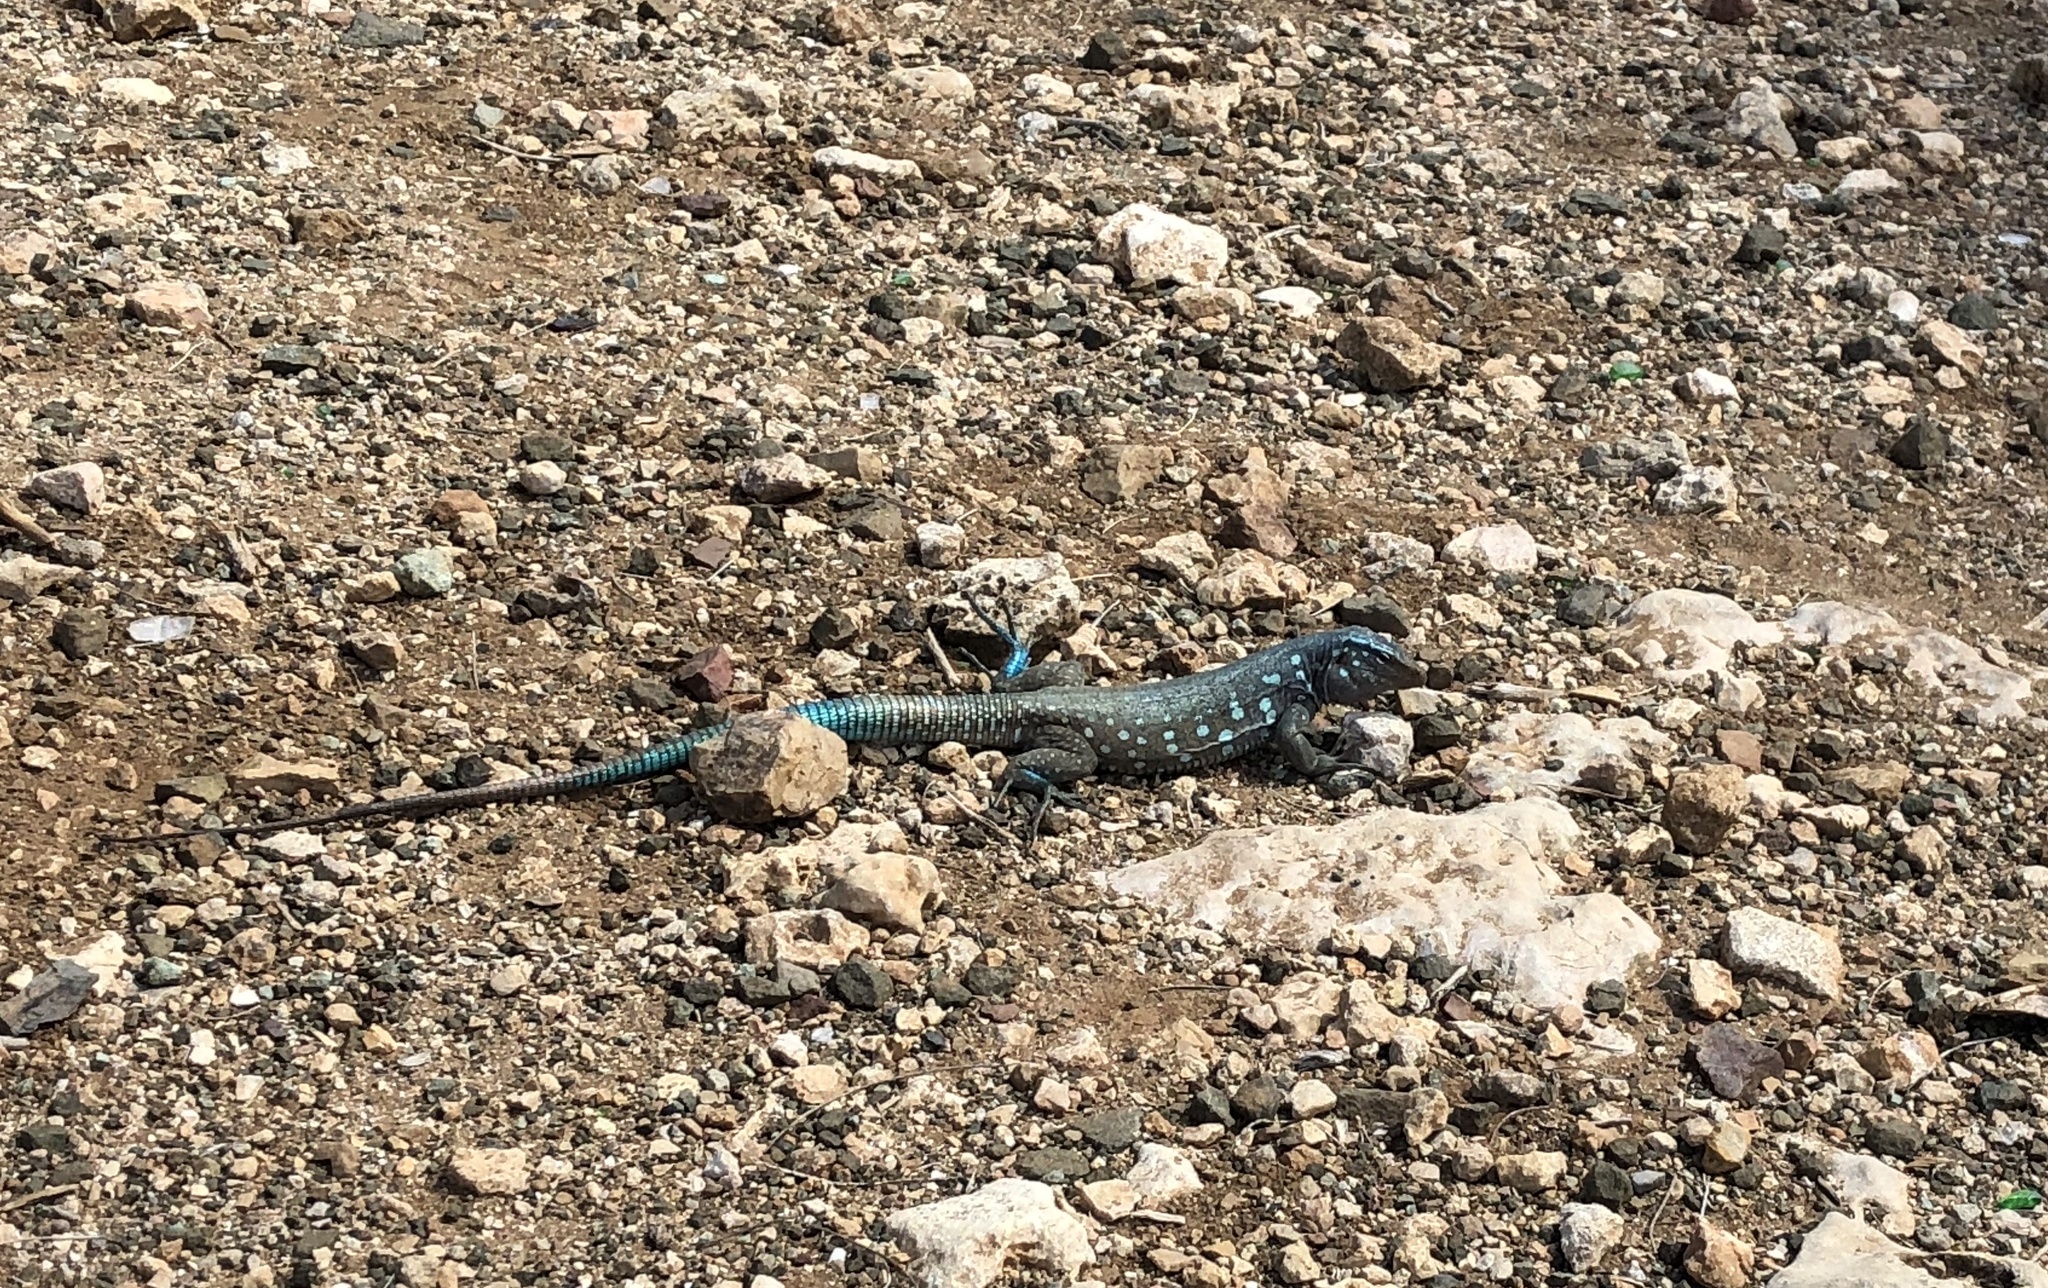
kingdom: Animalia
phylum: Chordata
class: Squamata
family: Teiidae
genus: Cnemidophorus
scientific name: Cnemidophorus ruthveni
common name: Bonaire whiptail
